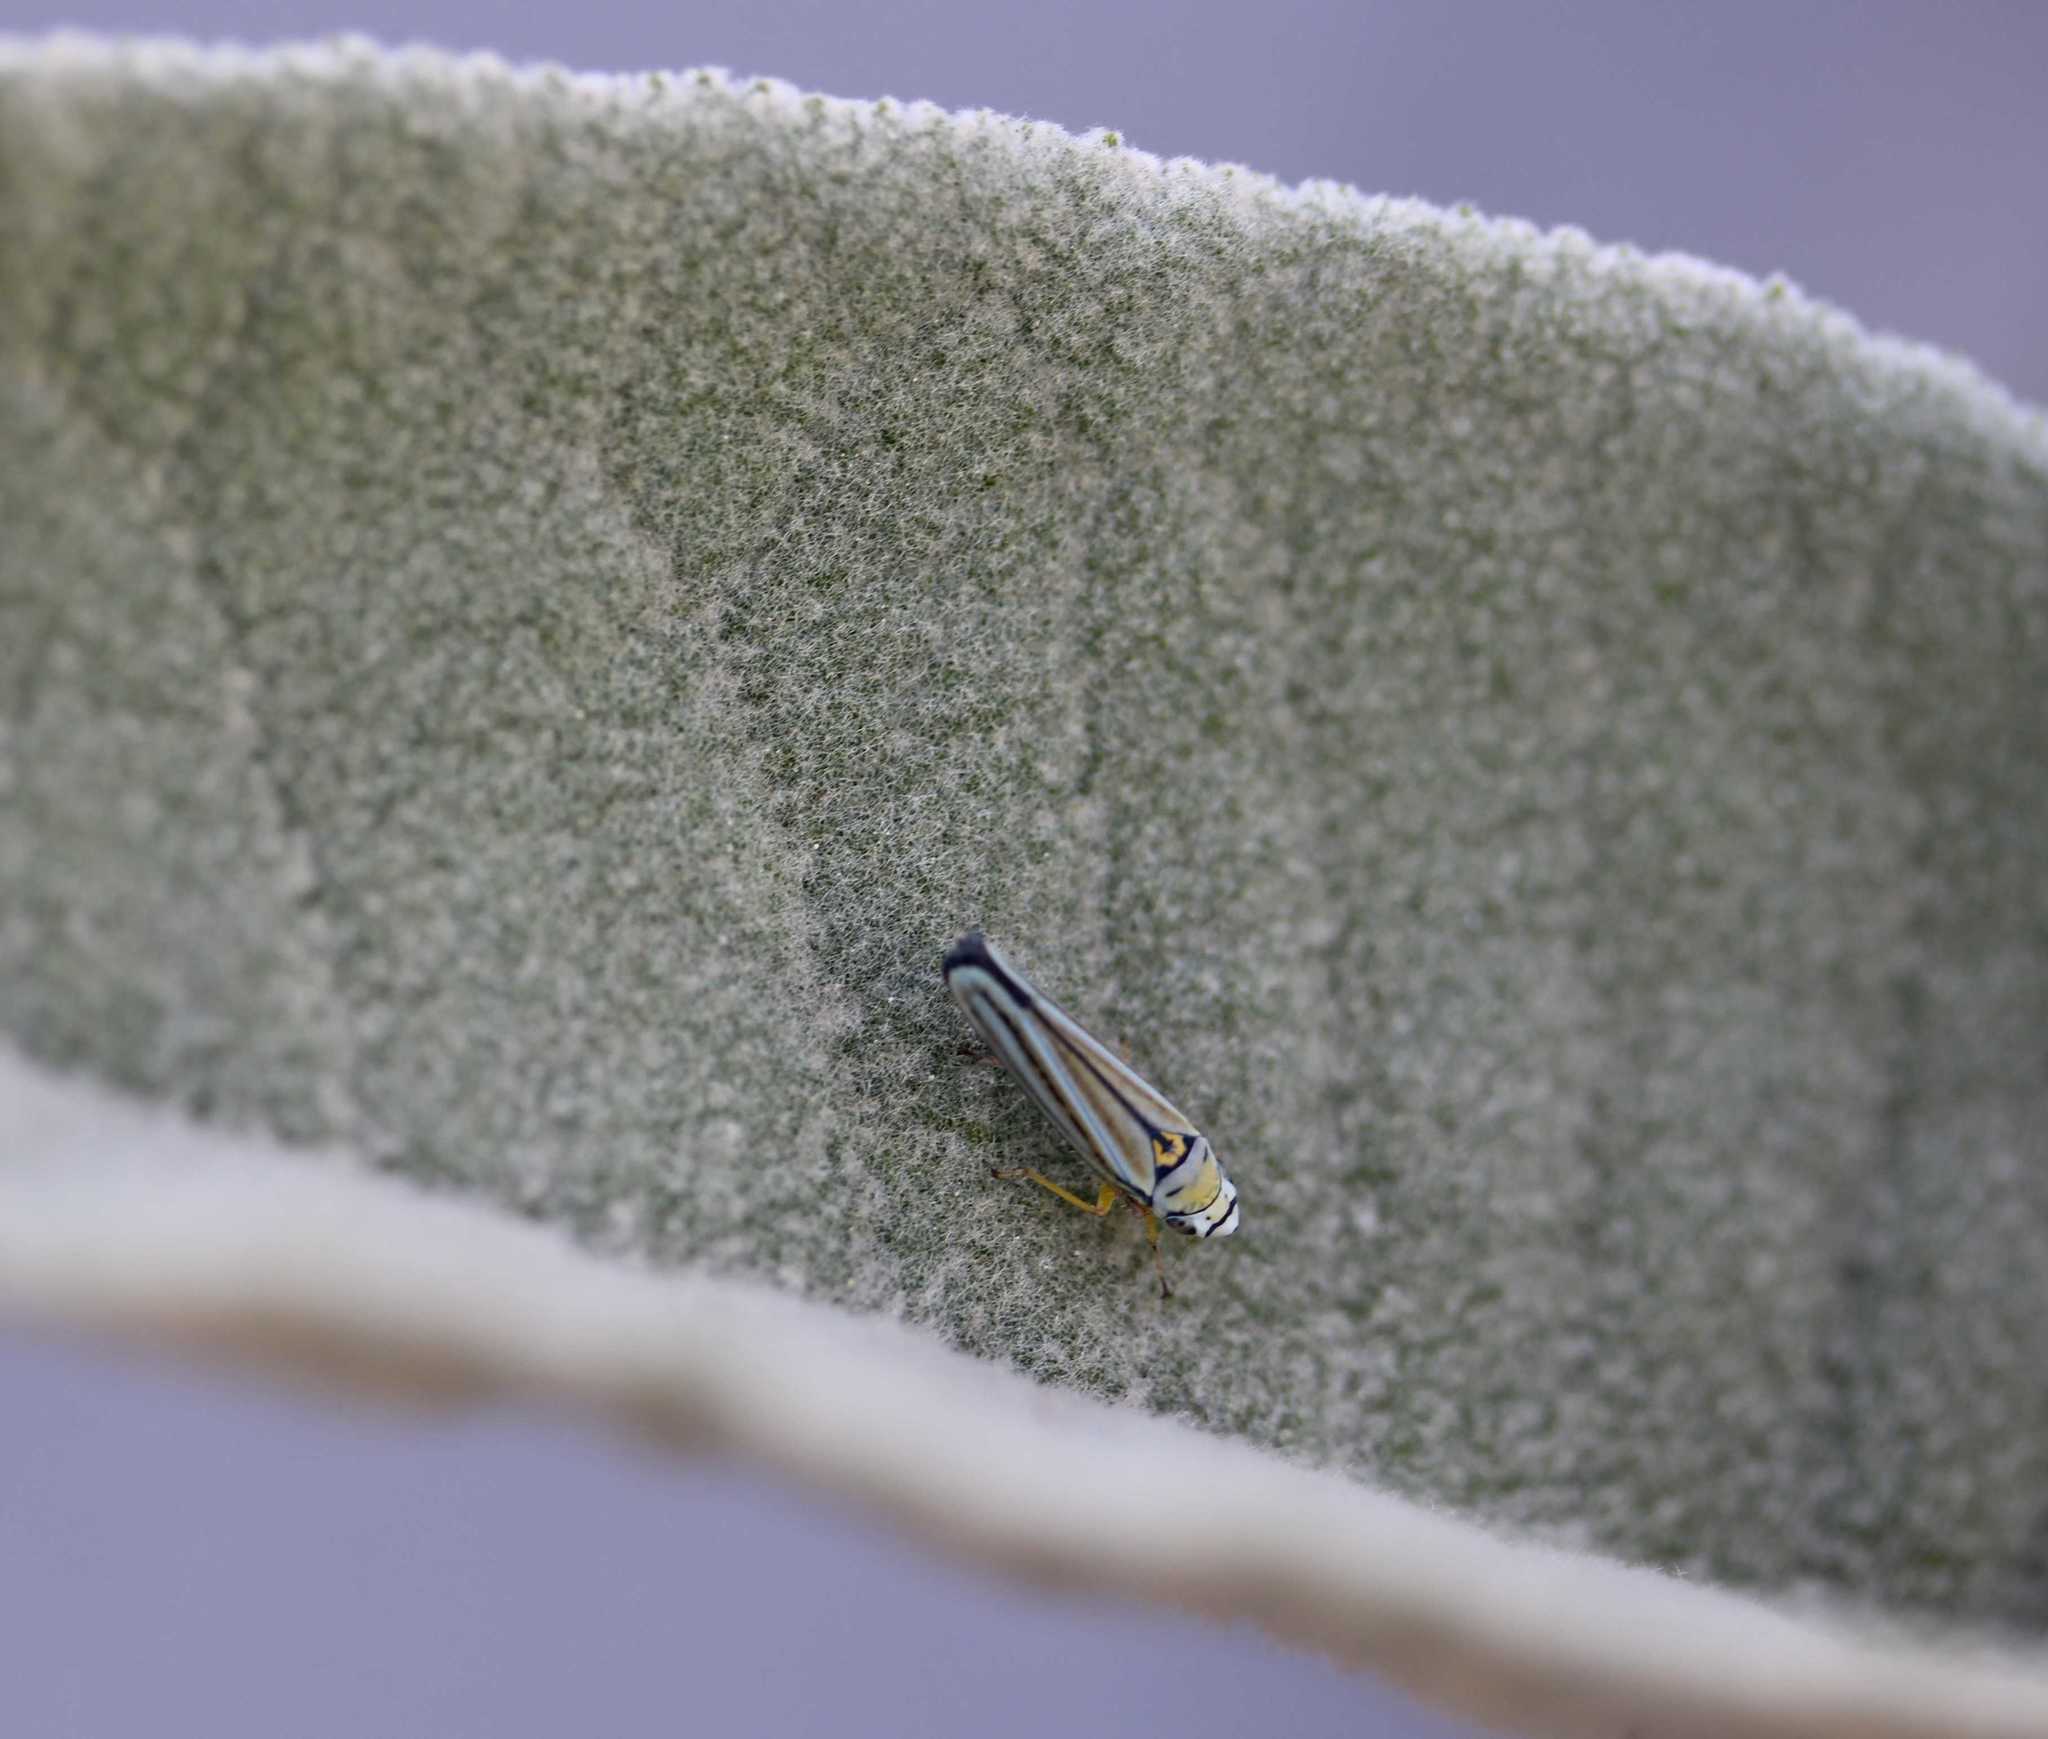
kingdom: Animalia
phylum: Arthropoda
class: Insecta
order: Hemiptera
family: Cicadellidae
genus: Graphocephala
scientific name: Graphocephala flavovittata
